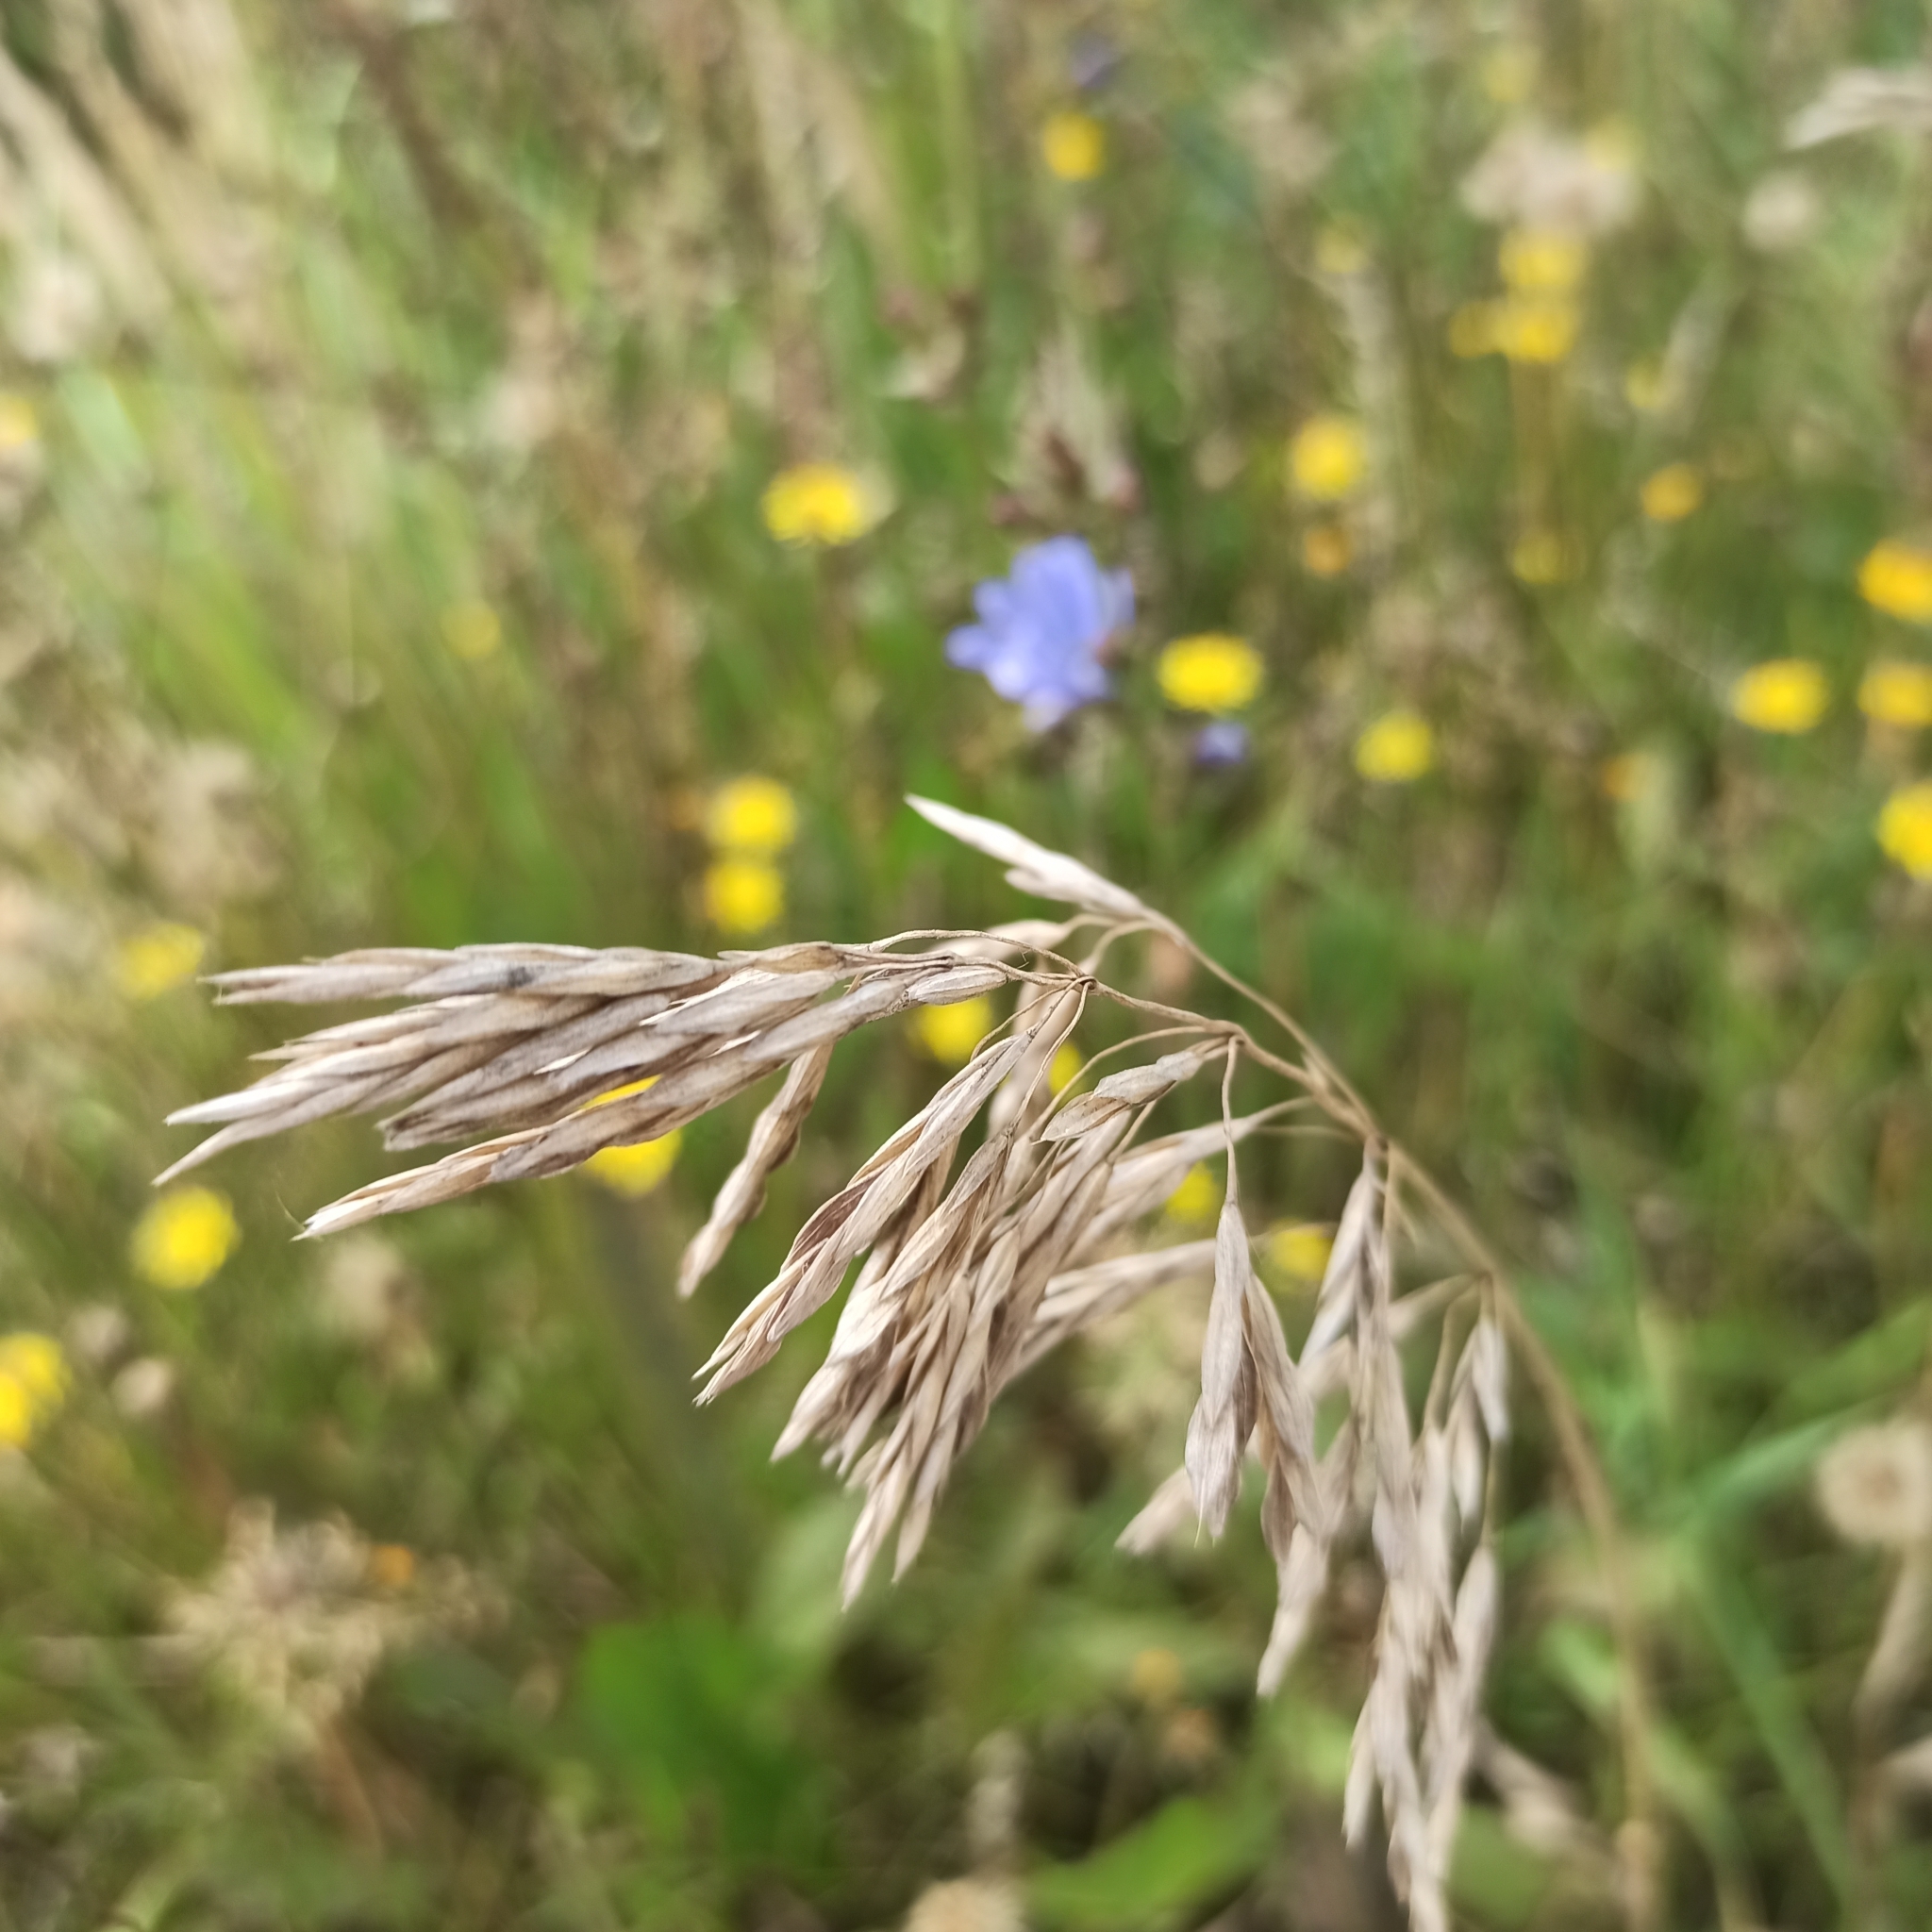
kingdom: Plantae
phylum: Tracheophyta
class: Liliopsida
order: Poales
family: Poaceae
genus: Bromus
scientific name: Bromus inermis
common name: Smooth brome
